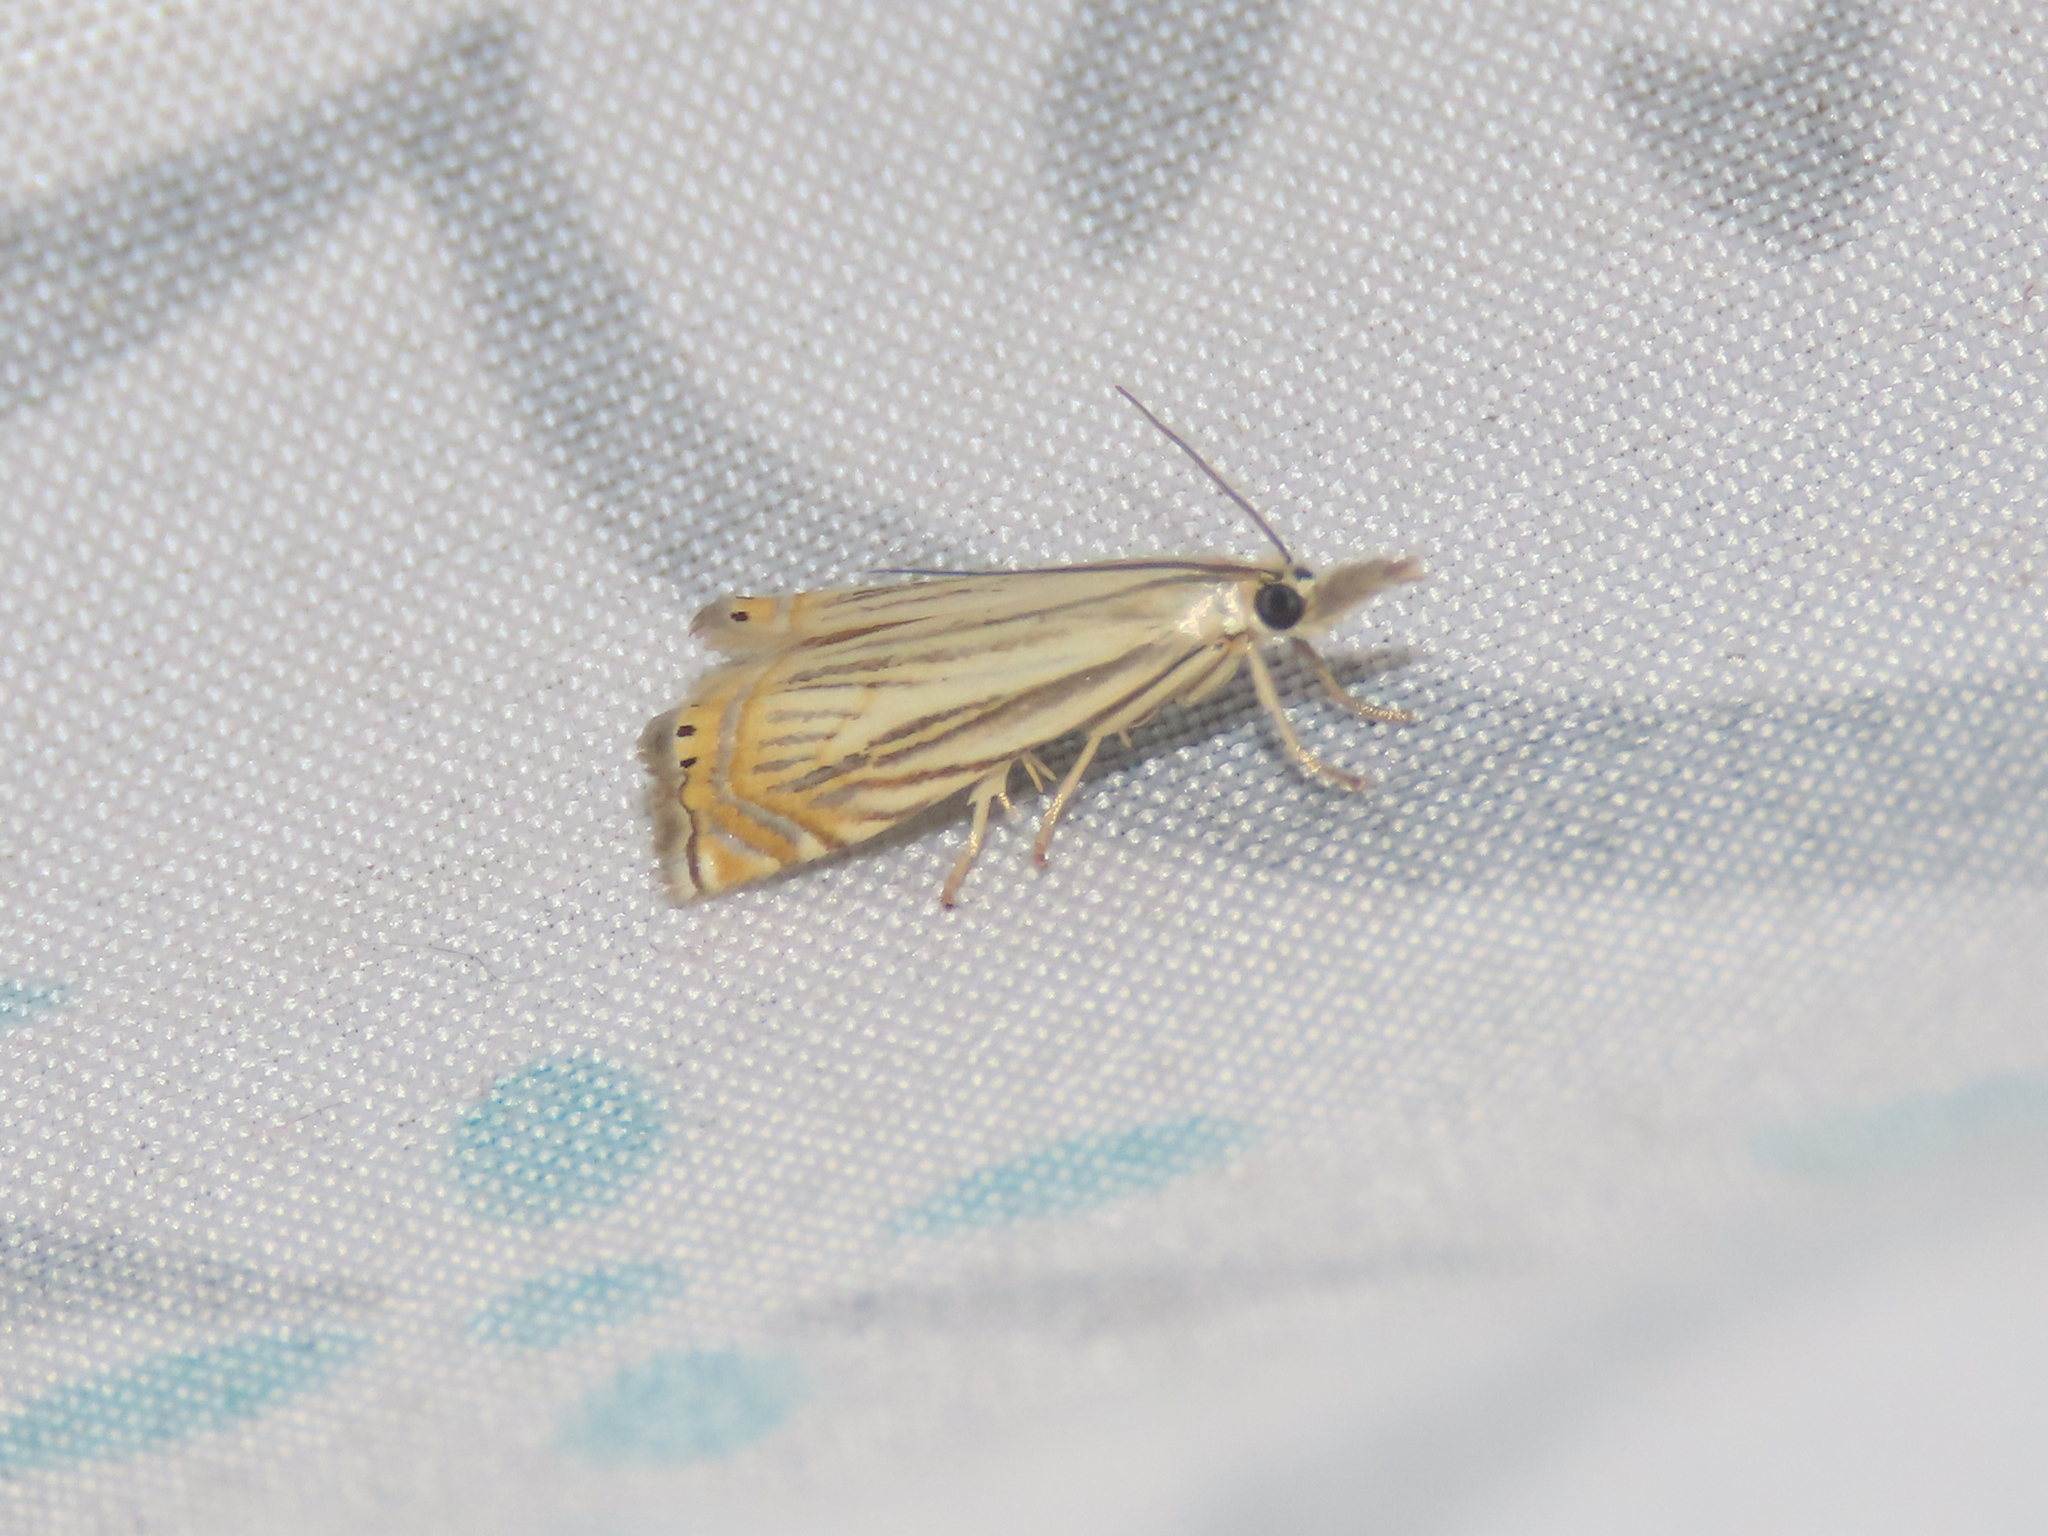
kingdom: Animalia
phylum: Arthropoda
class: Insecta
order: Lepidoptera
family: Crambidae
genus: Chrysoteuchia
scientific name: Chrysoteuchia topiarius
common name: Topiary grass-veneer
